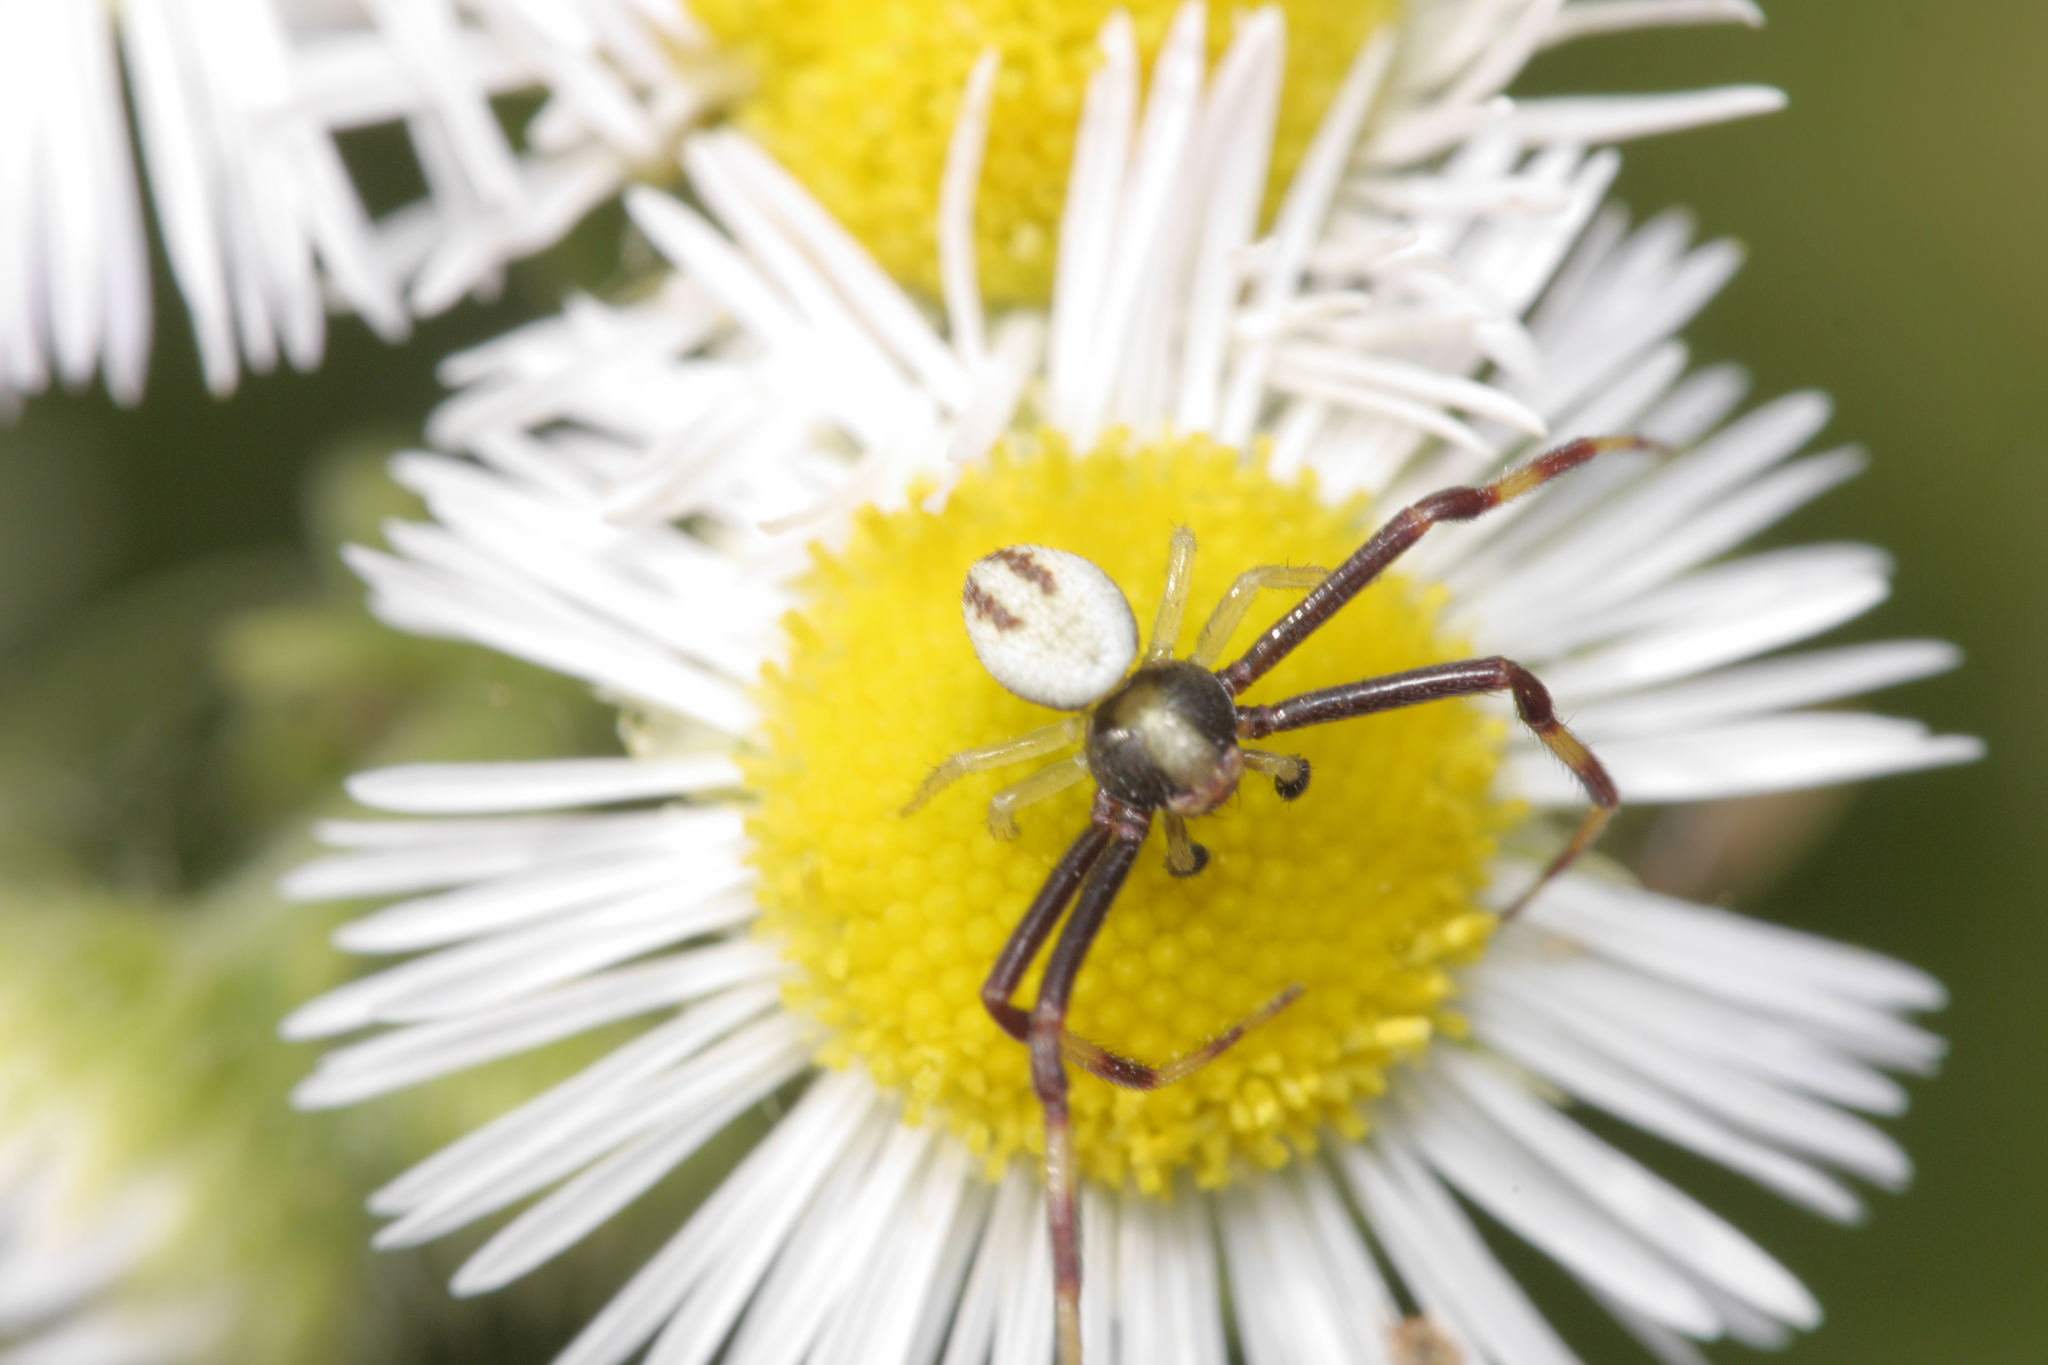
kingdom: Animalia
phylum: Arthropoda
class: Arachnida
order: Araneae
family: Thomisidae
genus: Misumena
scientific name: Misumena vatia
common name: Goldenrod crab spider
